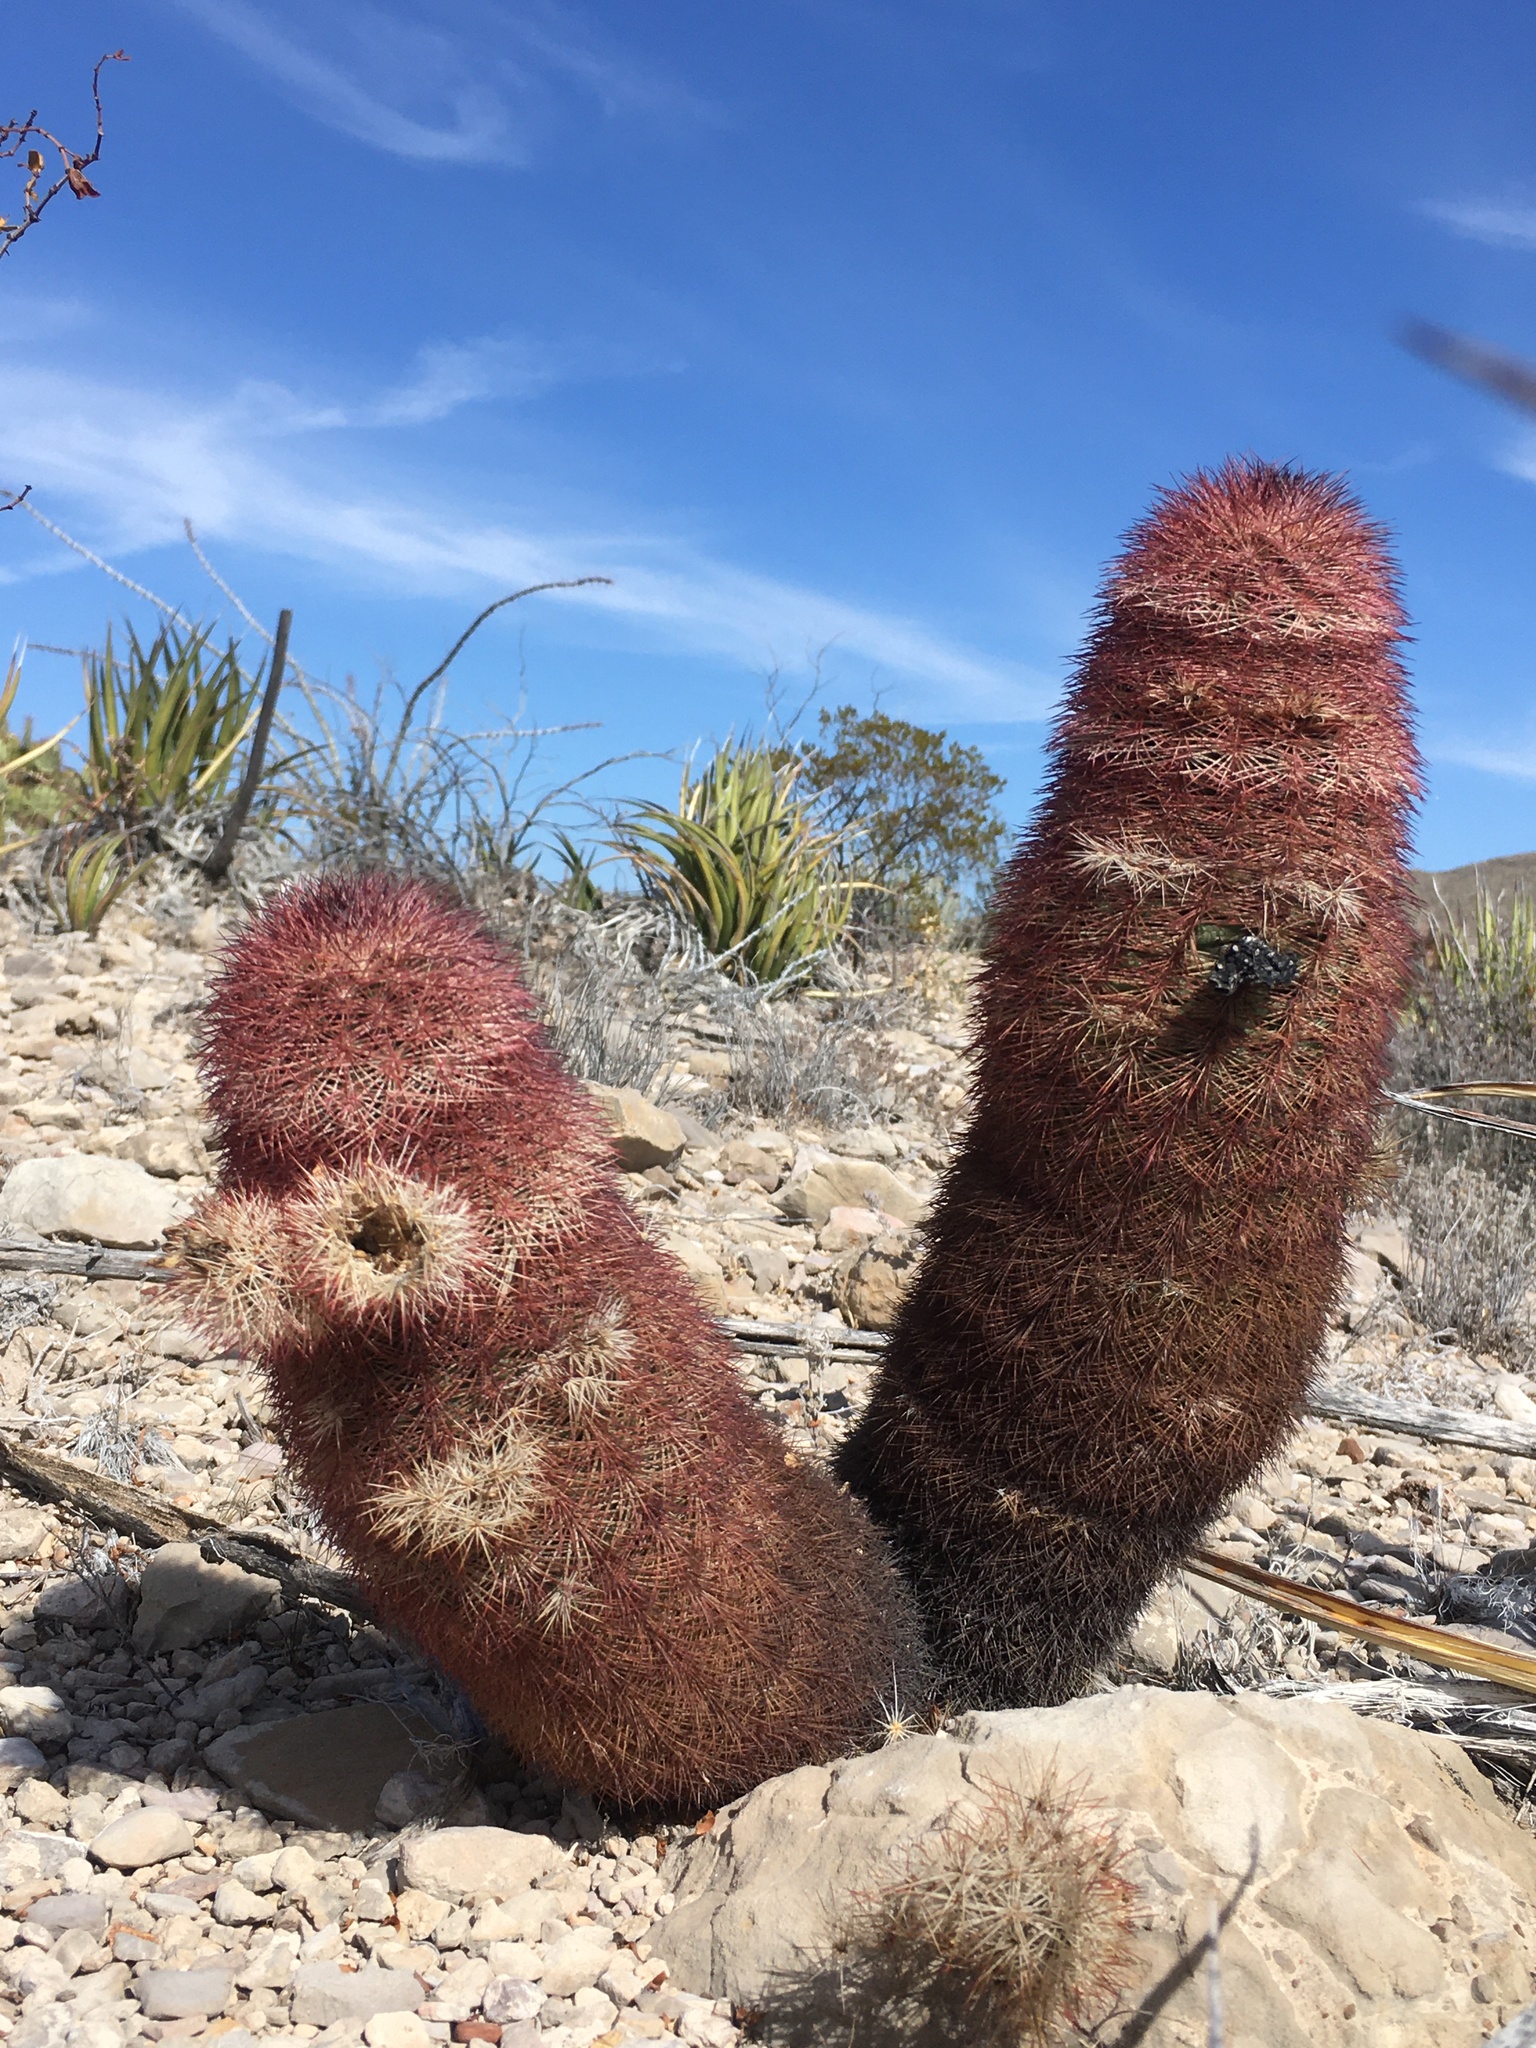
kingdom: Plantae
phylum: Tracheophyta
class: Magnoliopsida
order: Caryophyllales
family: Cactaceae
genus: Echinocereus
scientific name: Echinocereus dasyacanthus
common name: Spiny hedgehog cactus
